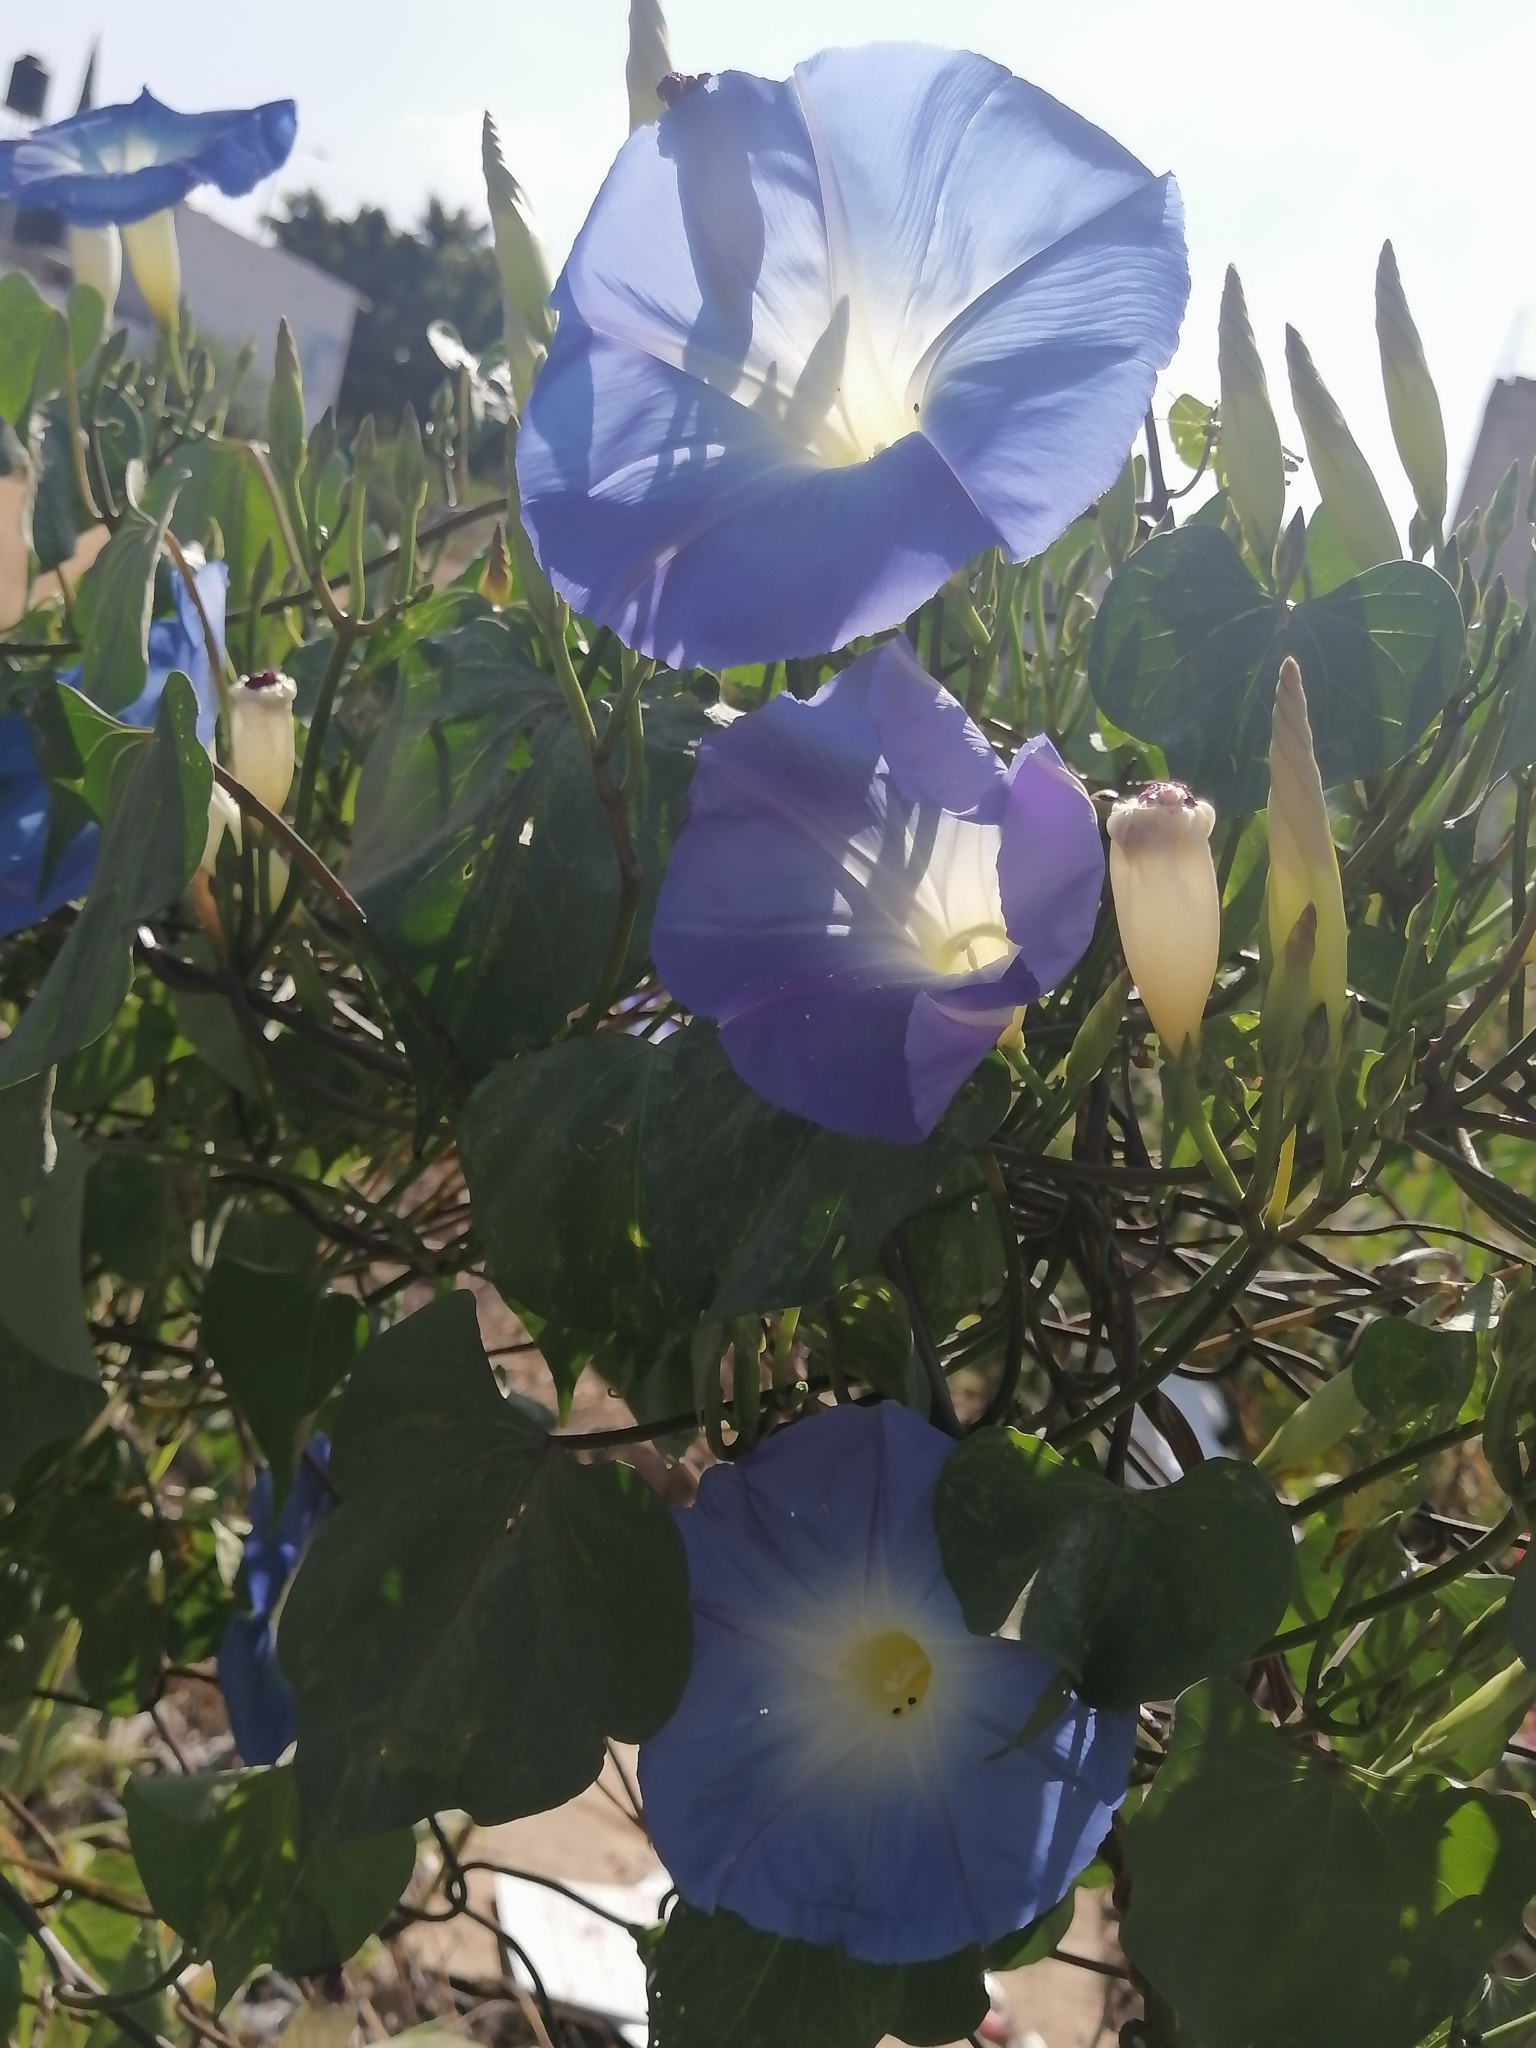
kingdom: Plantae
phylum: Tracheophyta
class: Magnoliopsida
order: Solanales
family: Convolvulaceae
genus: Ipomoea
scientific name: Ipomoea tricolor
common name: Morning-glory
